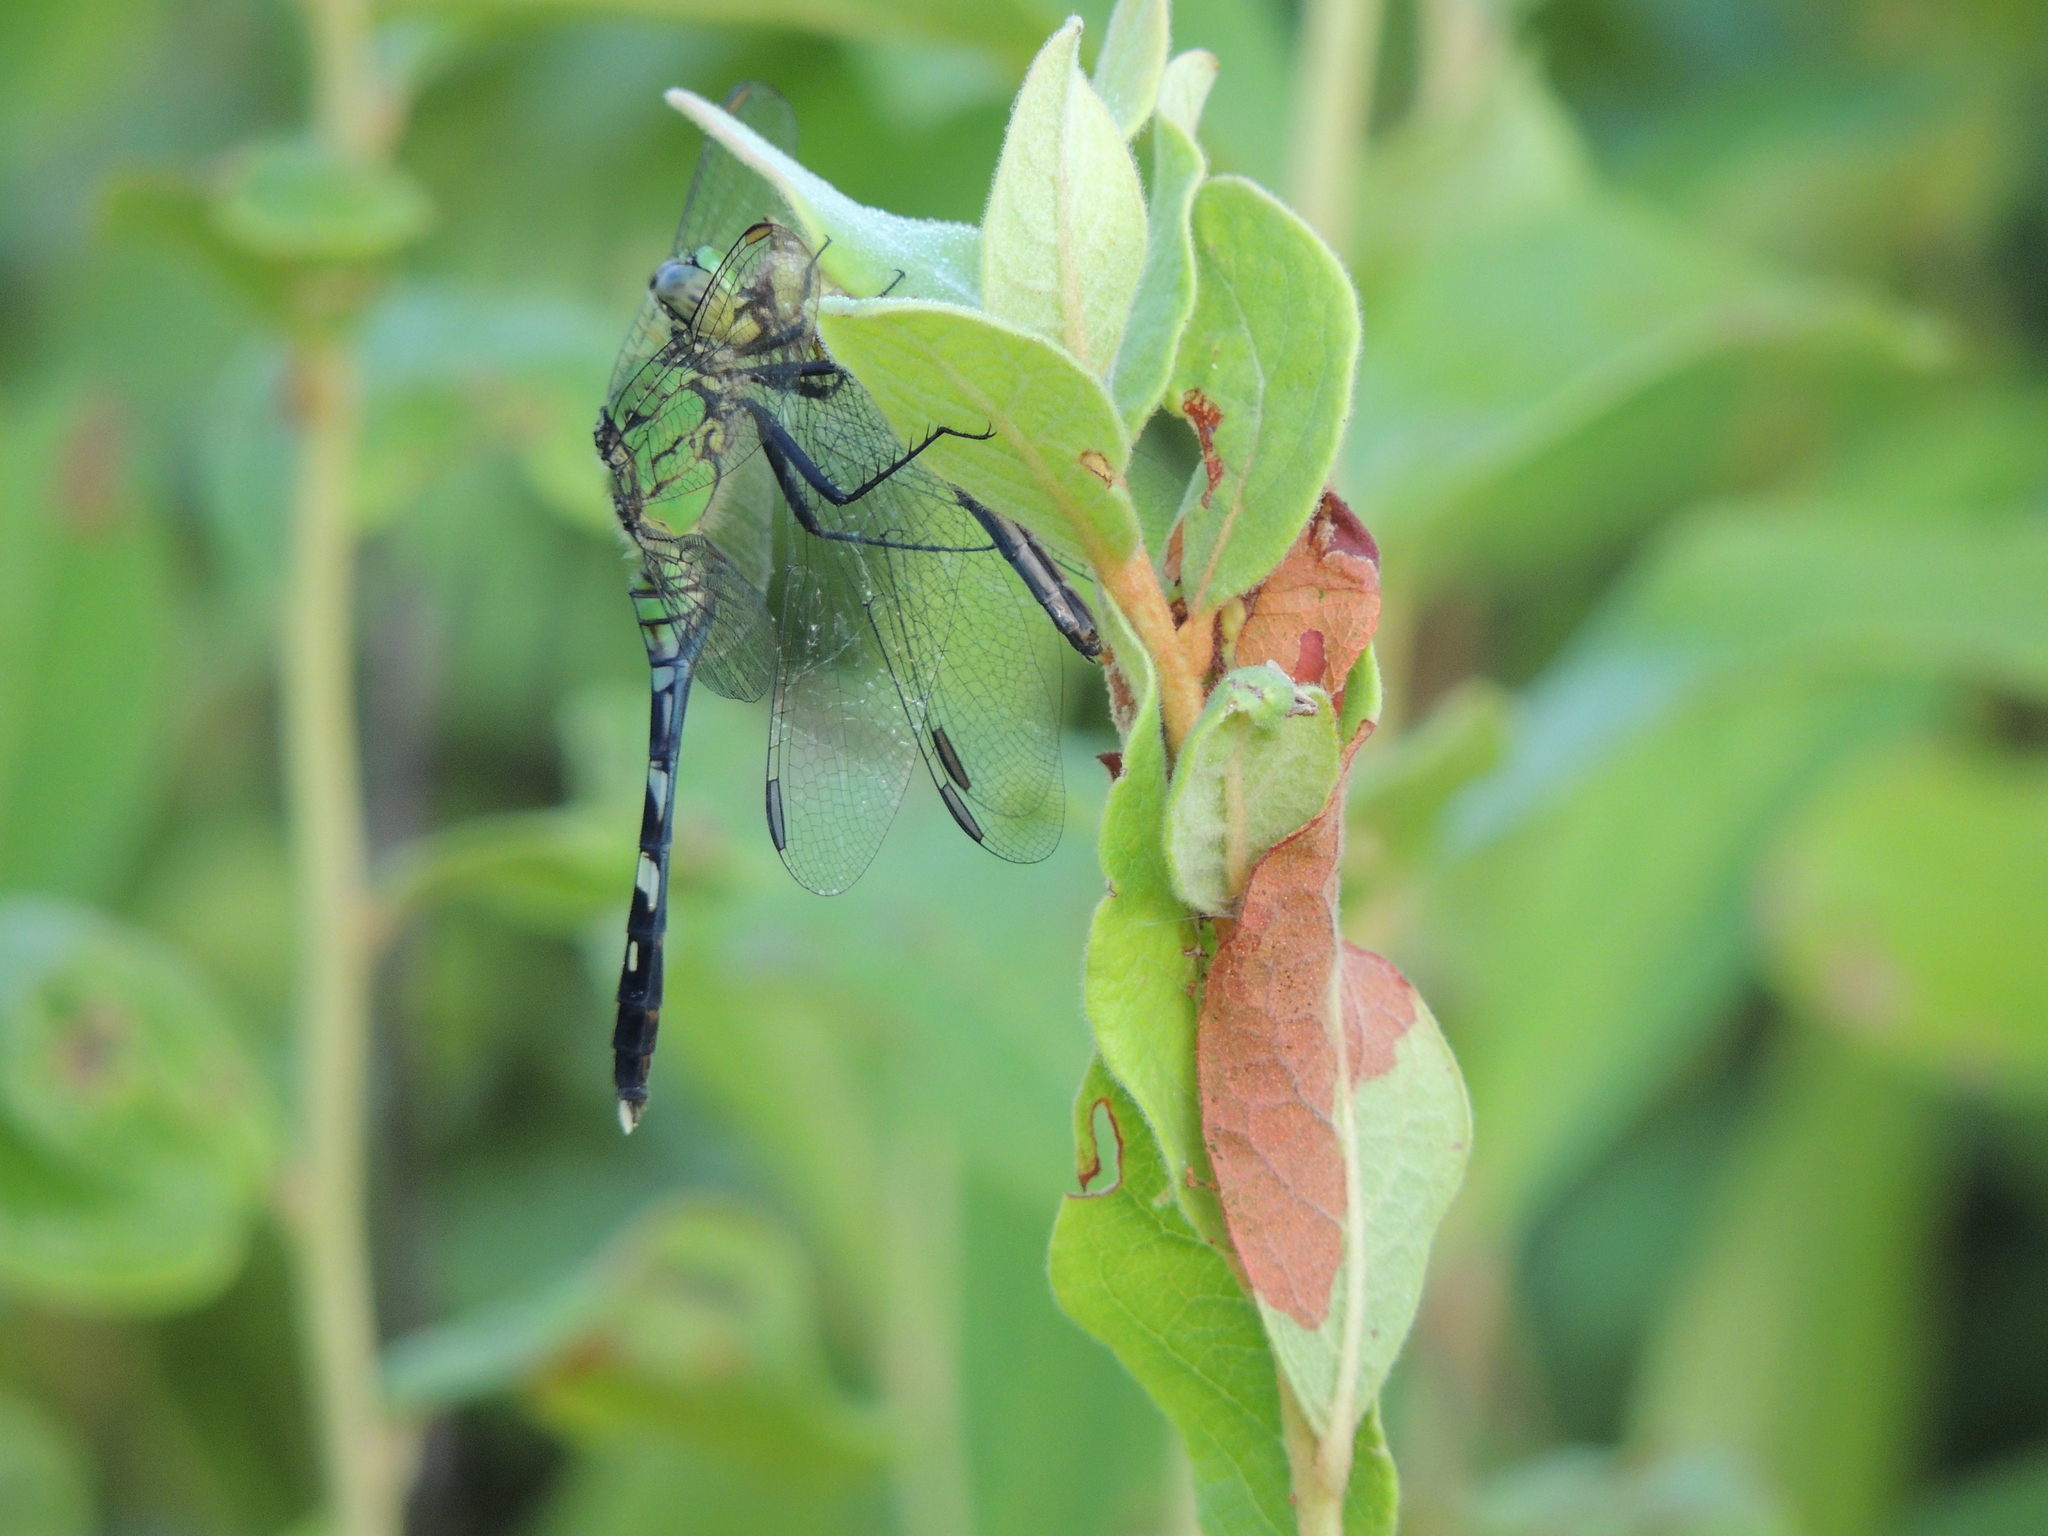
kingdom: Animalia
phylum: Arthropoda
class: Insecta
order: Odonata
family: Libellulidae
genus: Erythemis
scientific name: Erythemis simplicicollis
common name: Eastern pondhawk
